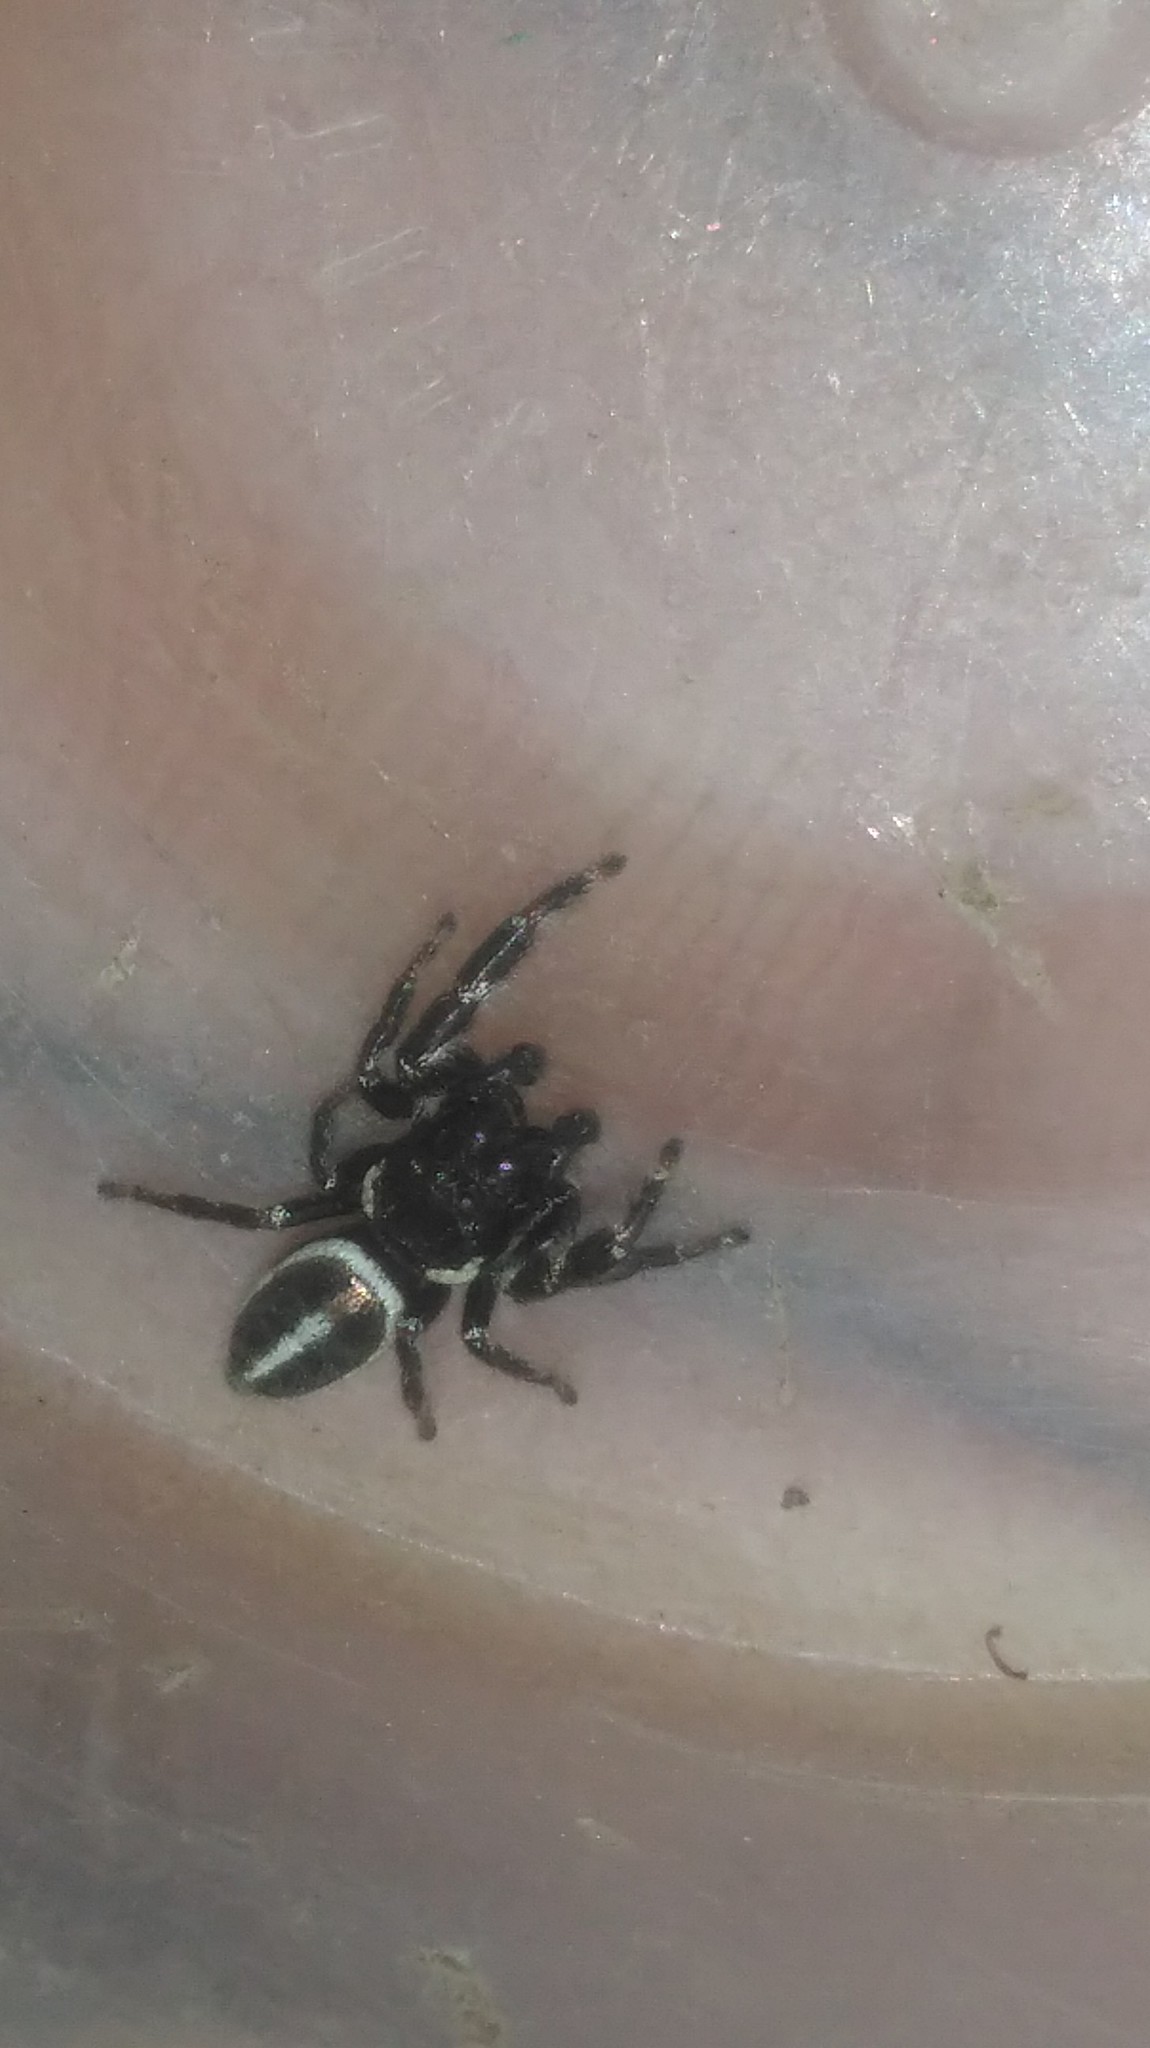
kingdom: Animalia
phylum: Arthropoda
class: Arachnida
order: Araneae
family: Salticidae
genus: Dendryphantes
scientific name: Dendryphantes mordax
